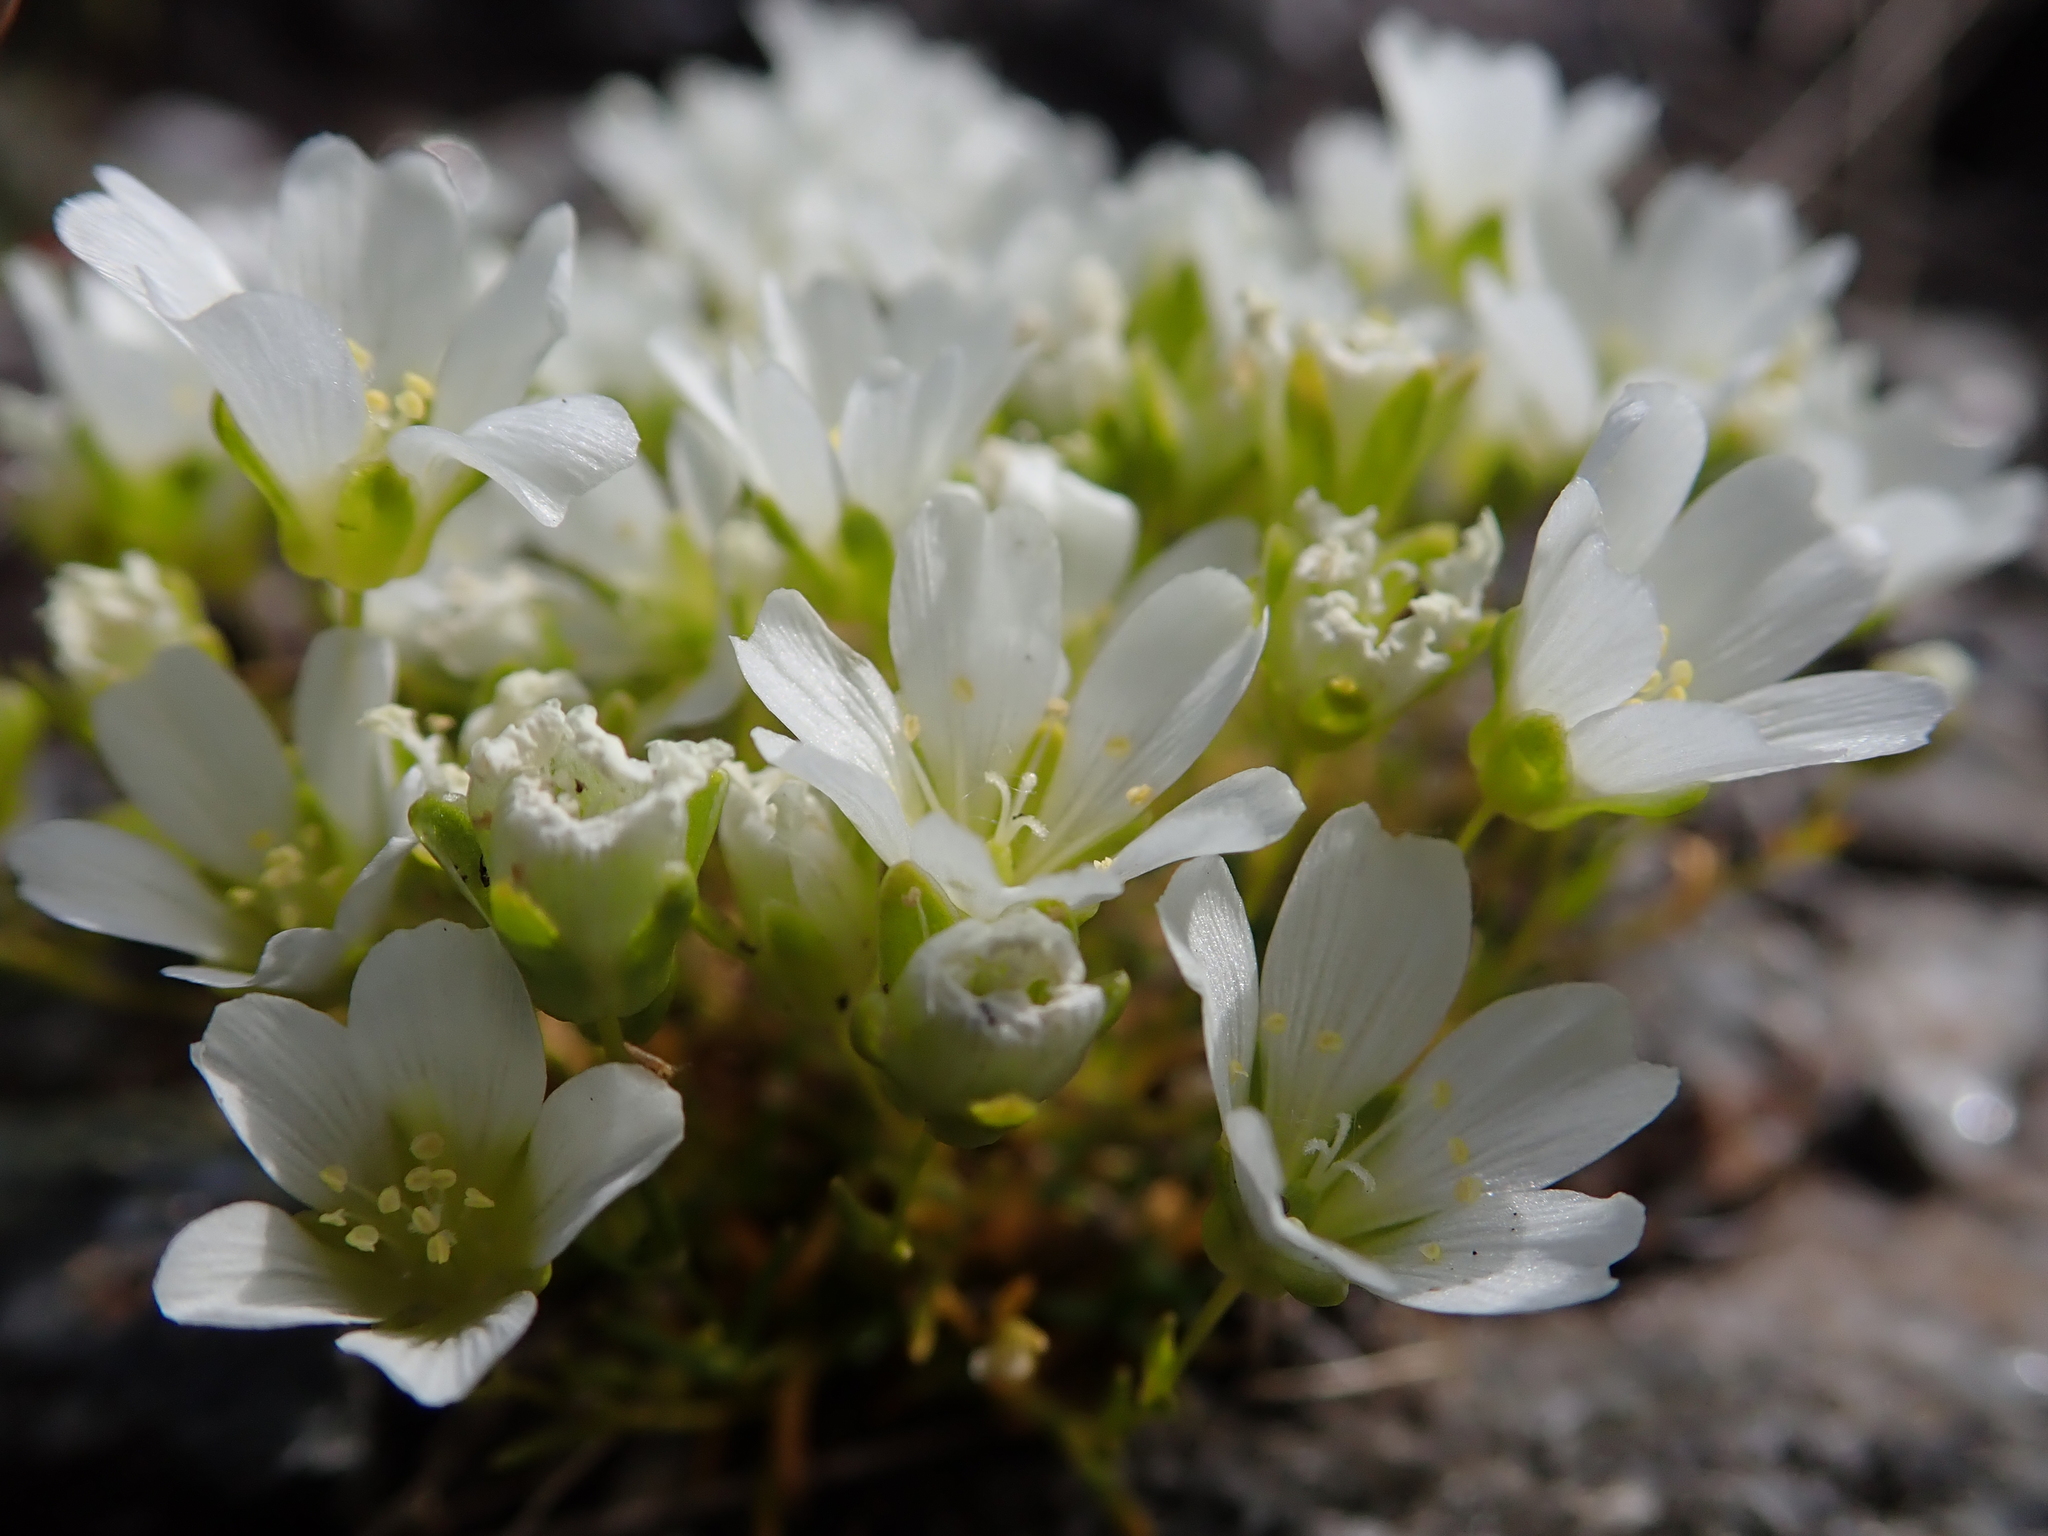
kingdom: Plantae
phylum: Tracheophyta
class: Magnoliopsida
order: Caryophyllales
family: Caryophyllaceae
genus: Geocarpon
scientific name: Geocarpon groenlandicum
